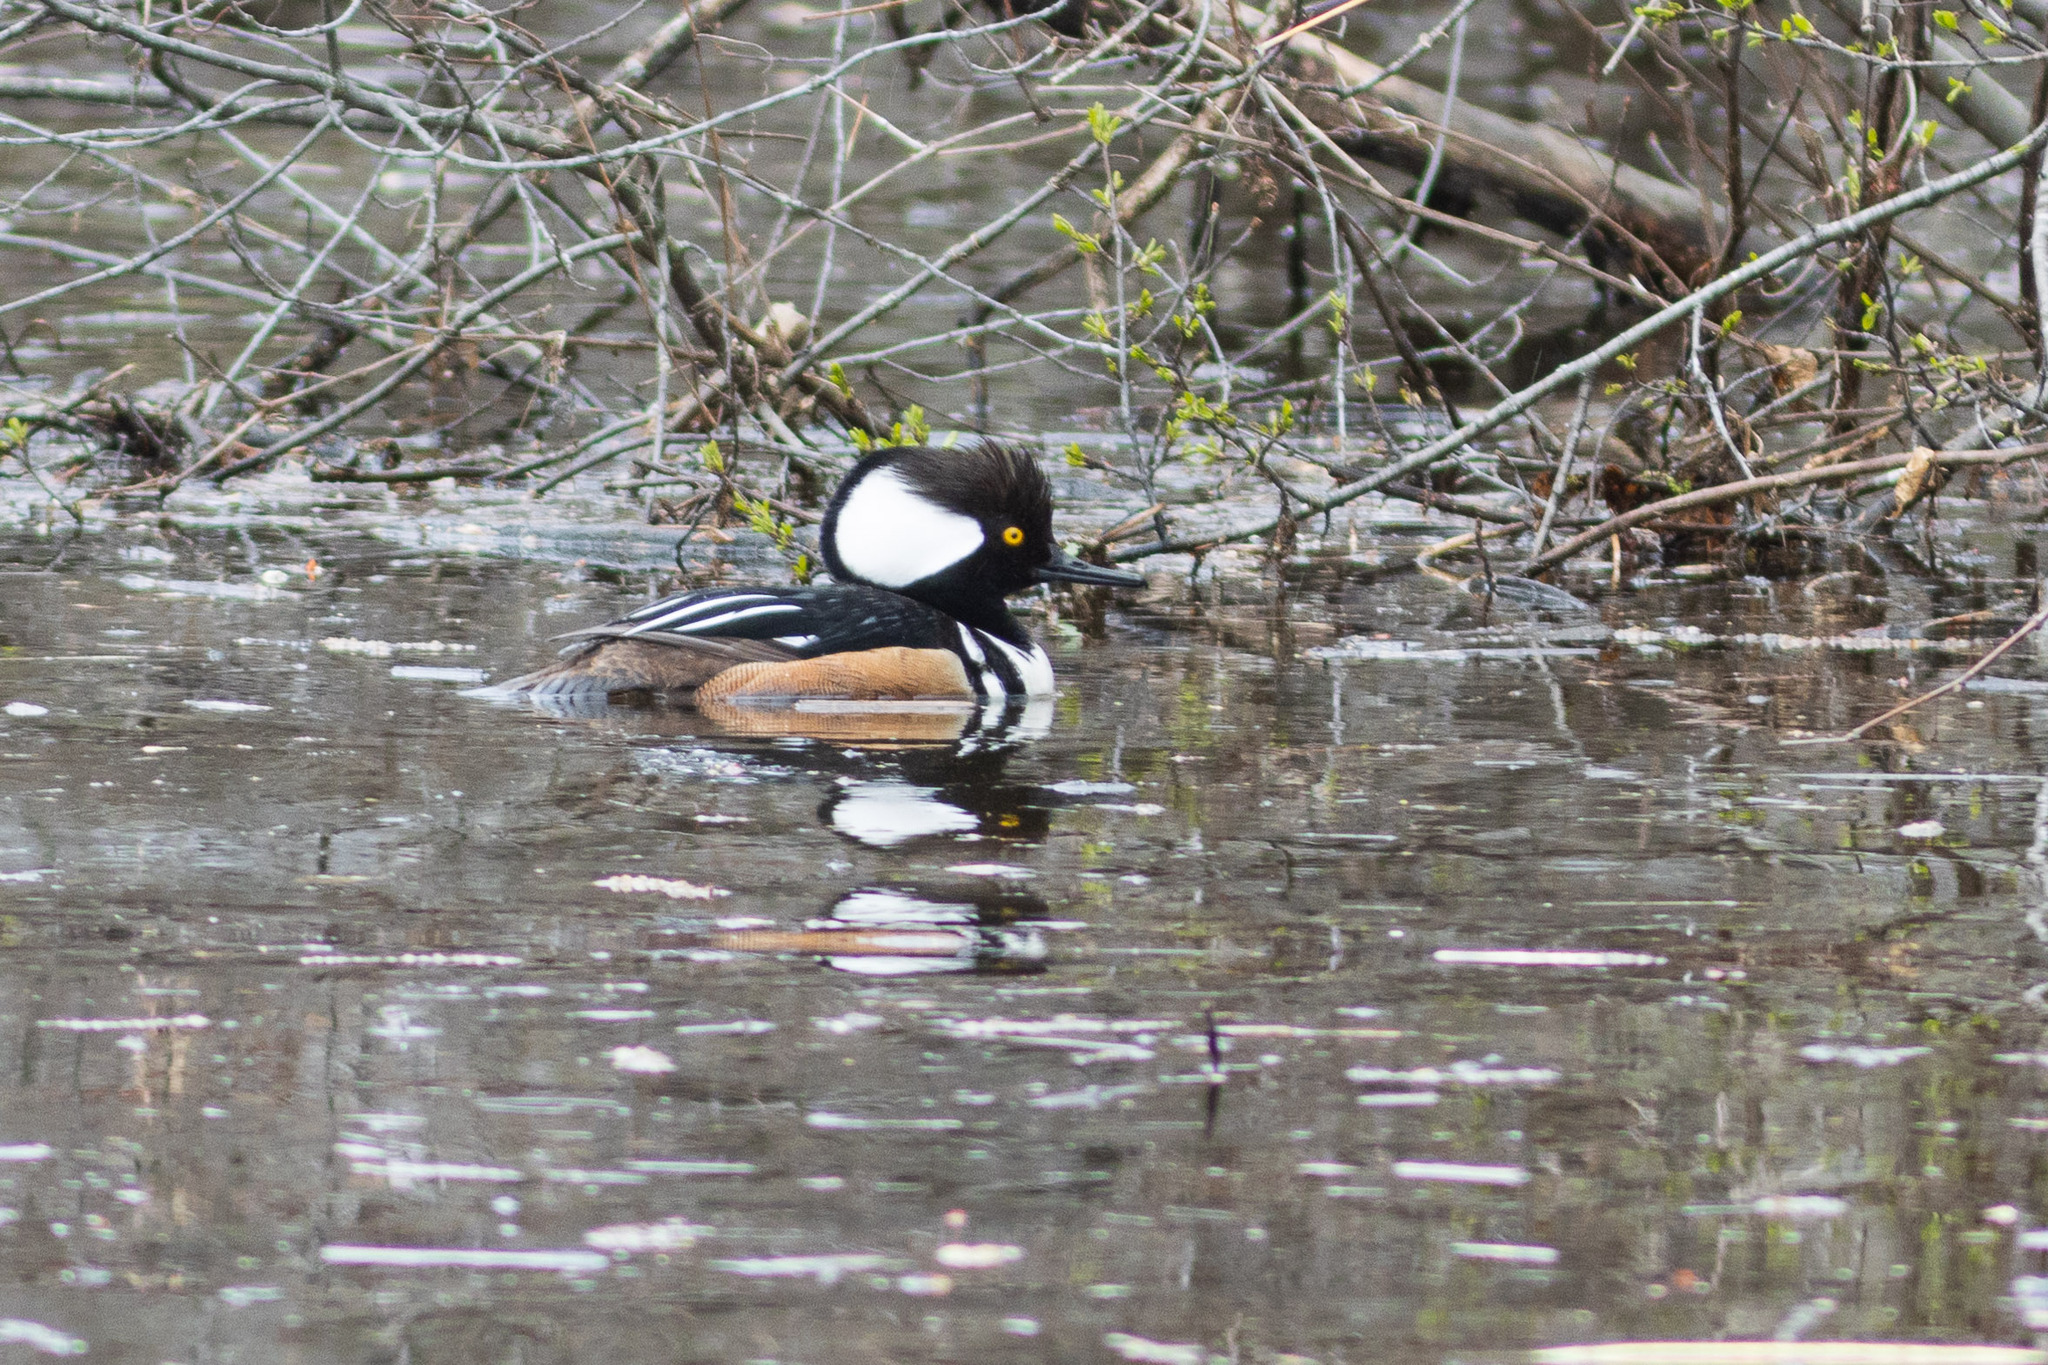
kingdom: Animalia
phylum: Chordata
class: Aves
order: Anseriformes
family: Anatidae
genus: Lophodytes
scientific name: Lophodytes cucullatus
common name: Hooded merganser
